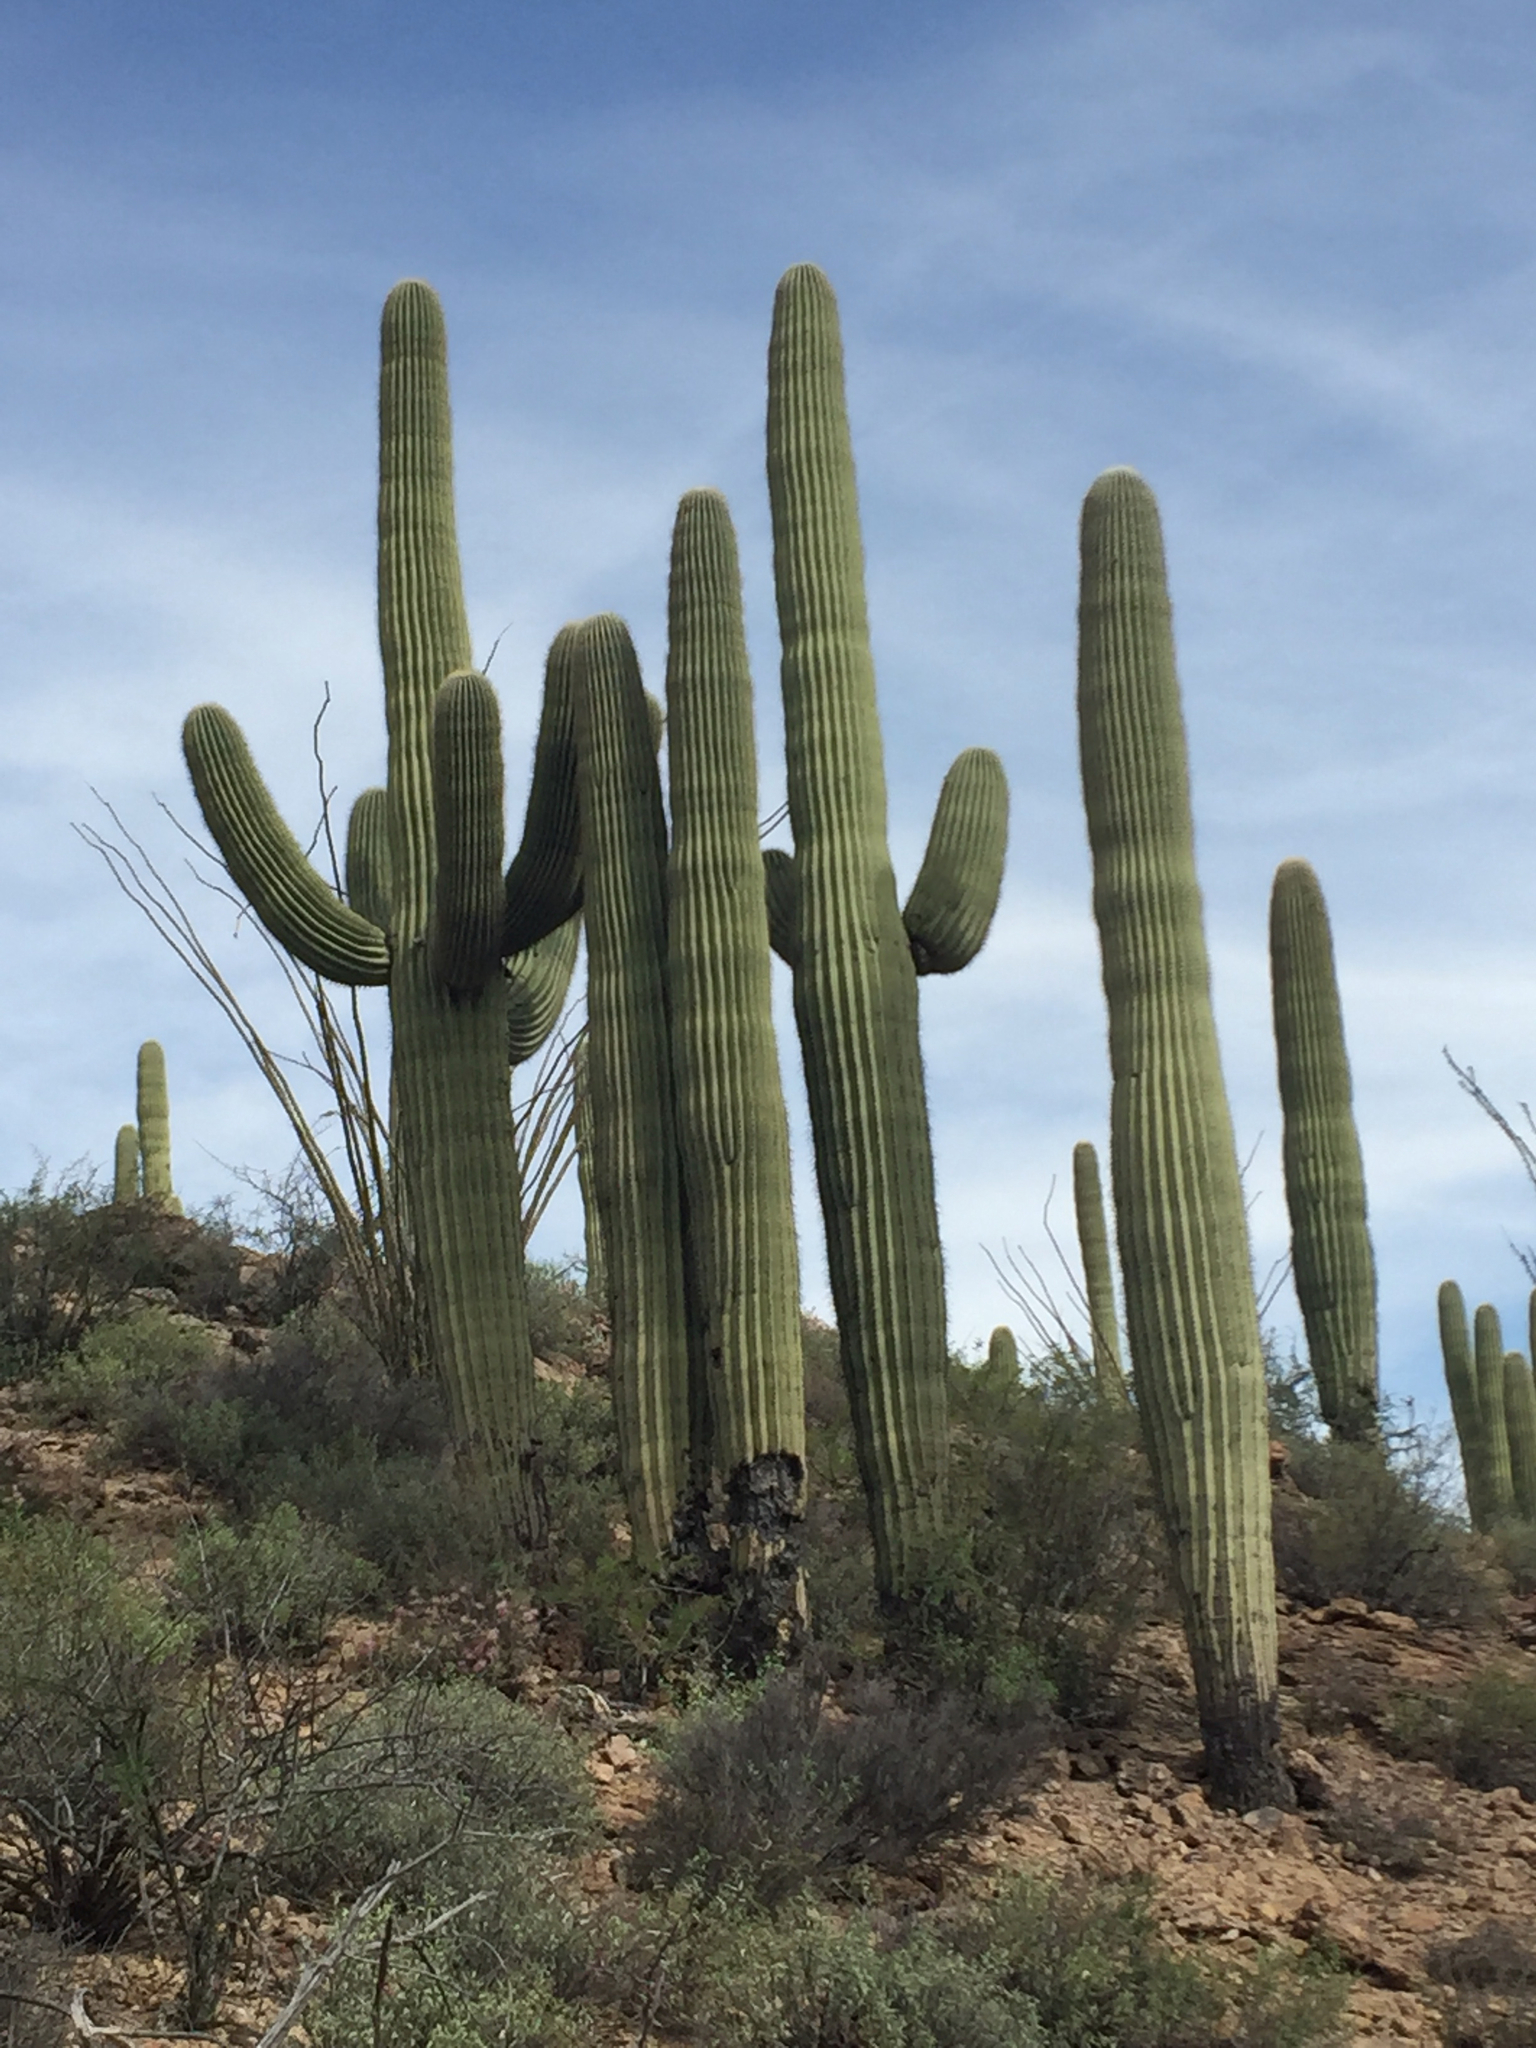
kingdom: Plantae
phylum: Tracheophyta
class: Magnoliopsida
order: Caryophyllales
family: Cactaceae
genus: Carnegiea
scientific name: Carnegiea gigantea
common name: Saguaro
